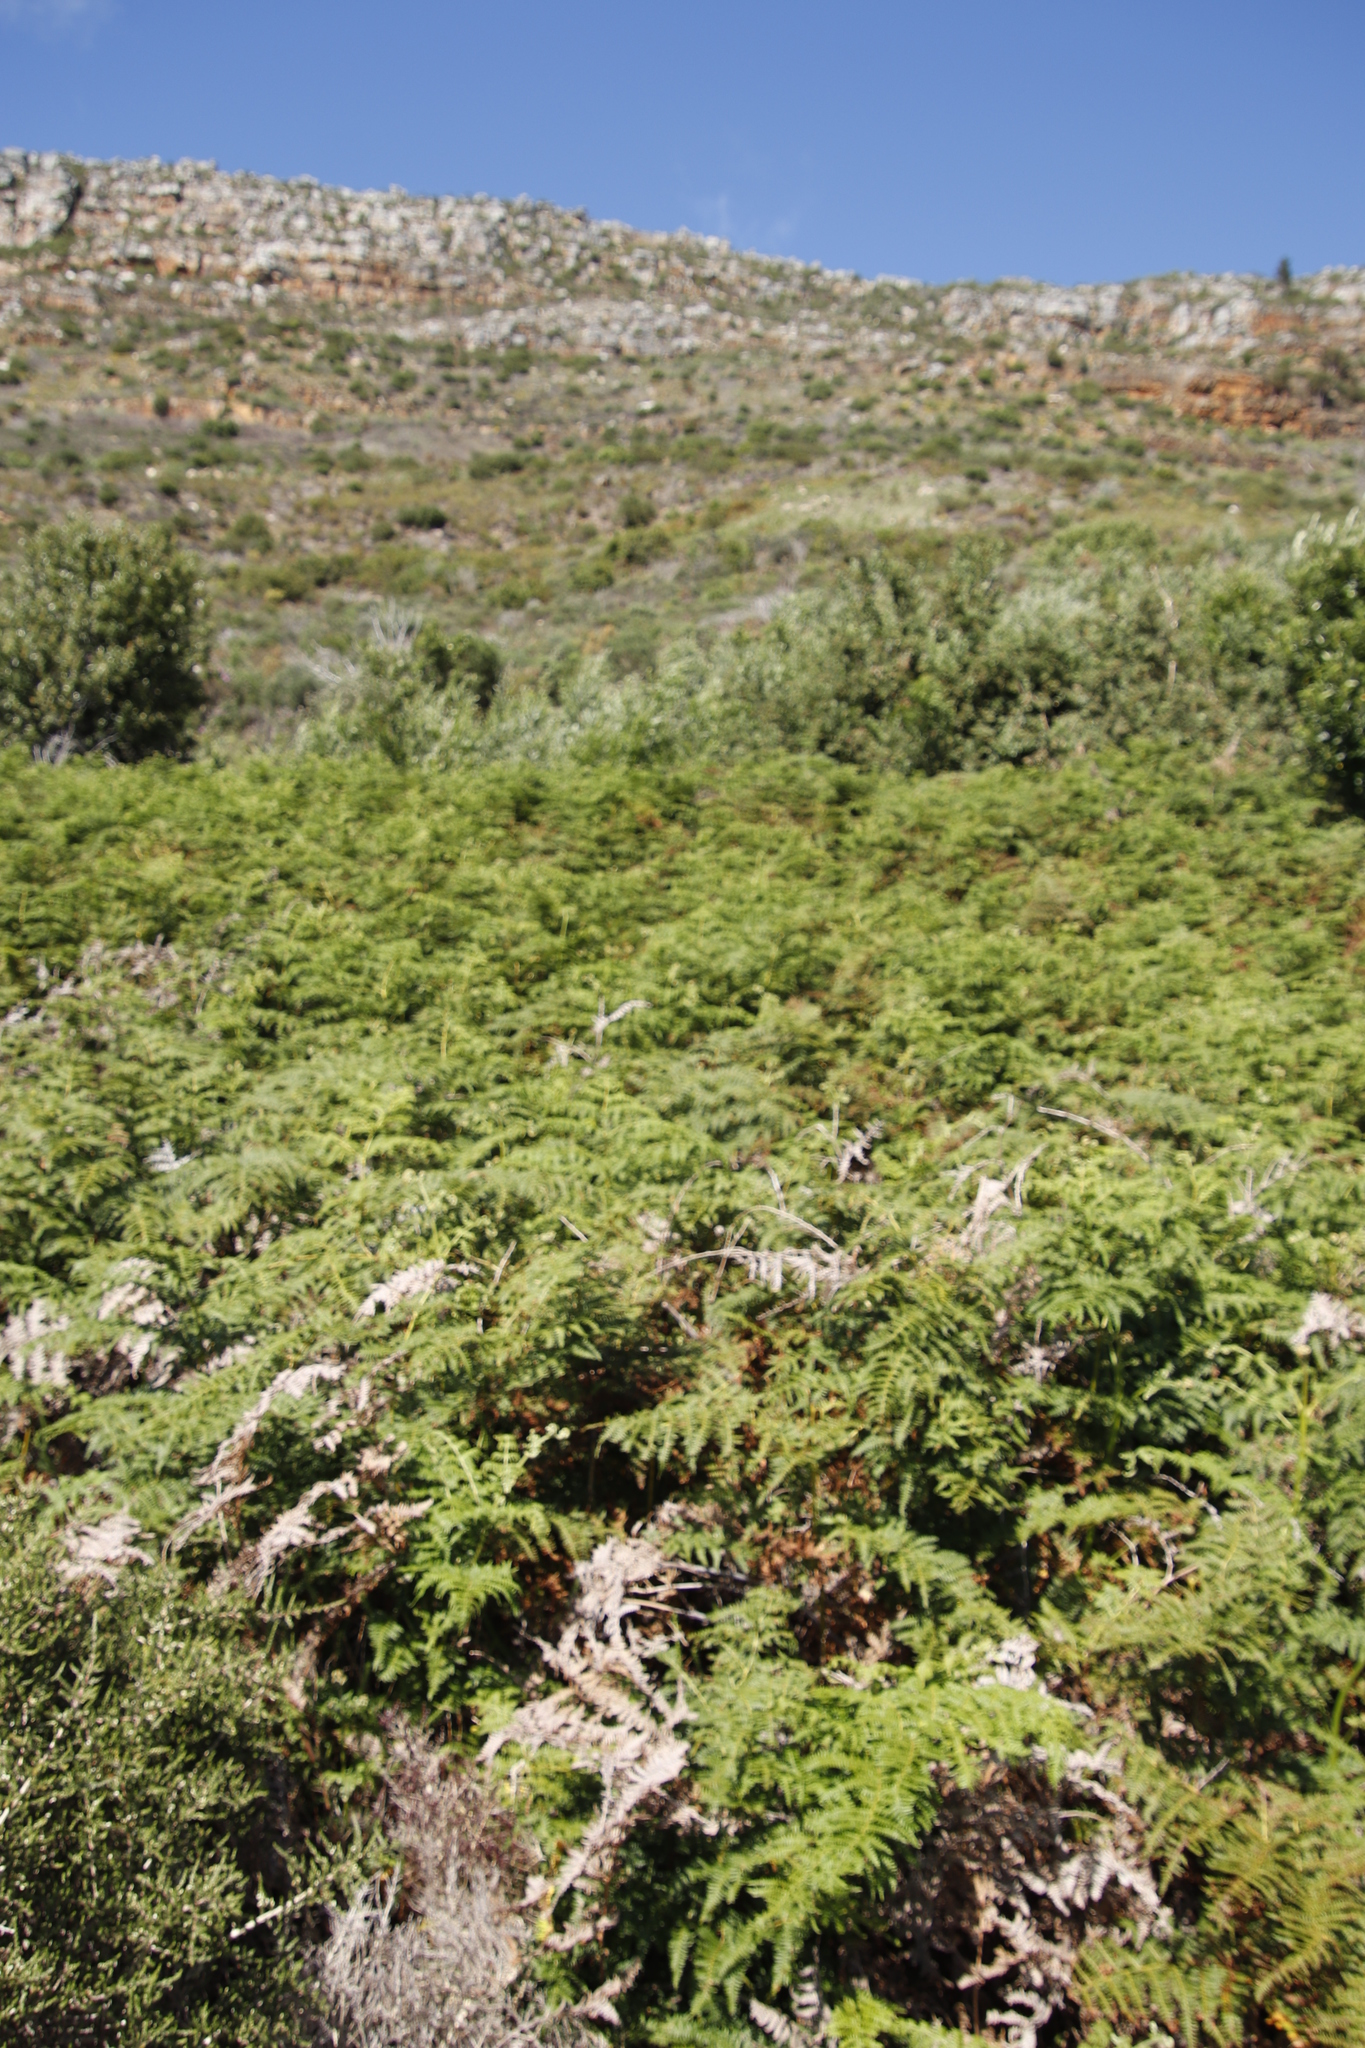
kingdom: Plantae
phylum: Tracheophyta
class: Polypodiopsida
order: Polypodiales
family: Dennstaedtiaceae
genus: Pteridium
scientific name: Pteridium aquilinum
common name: Bracken
